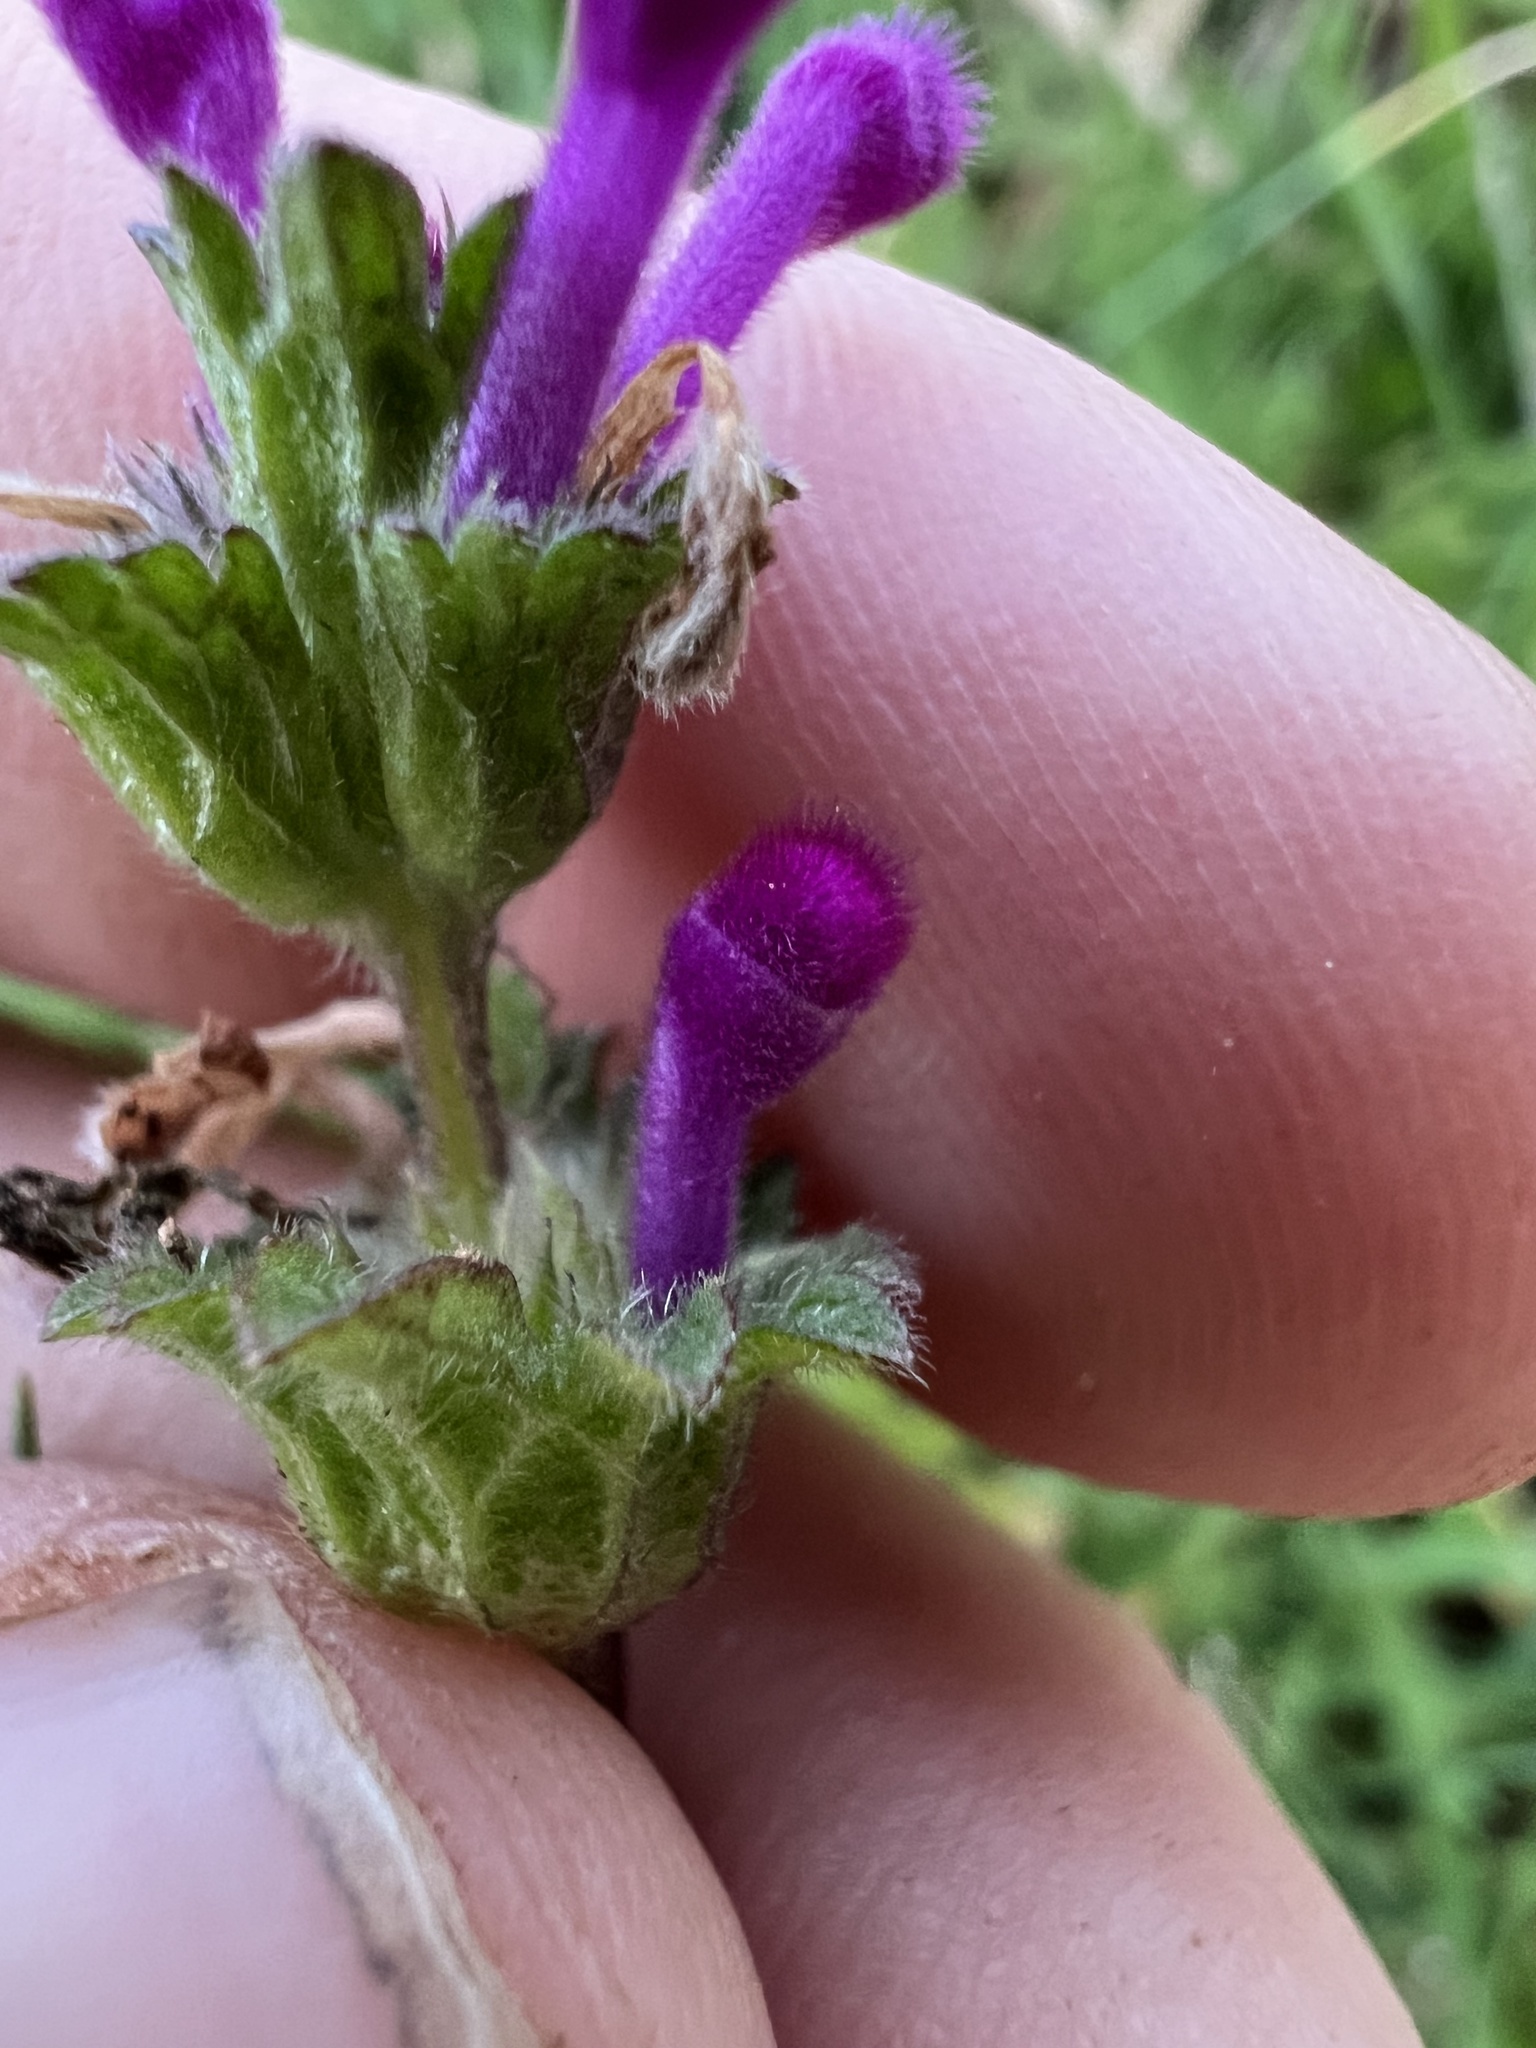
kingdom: Plantae
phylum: Tracheophyta
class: Magnoliopsida
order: Lamiales
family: Lamiaceae
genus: Lamium
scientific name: Lamium amplexicaule
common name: Henbit dead-nettle
